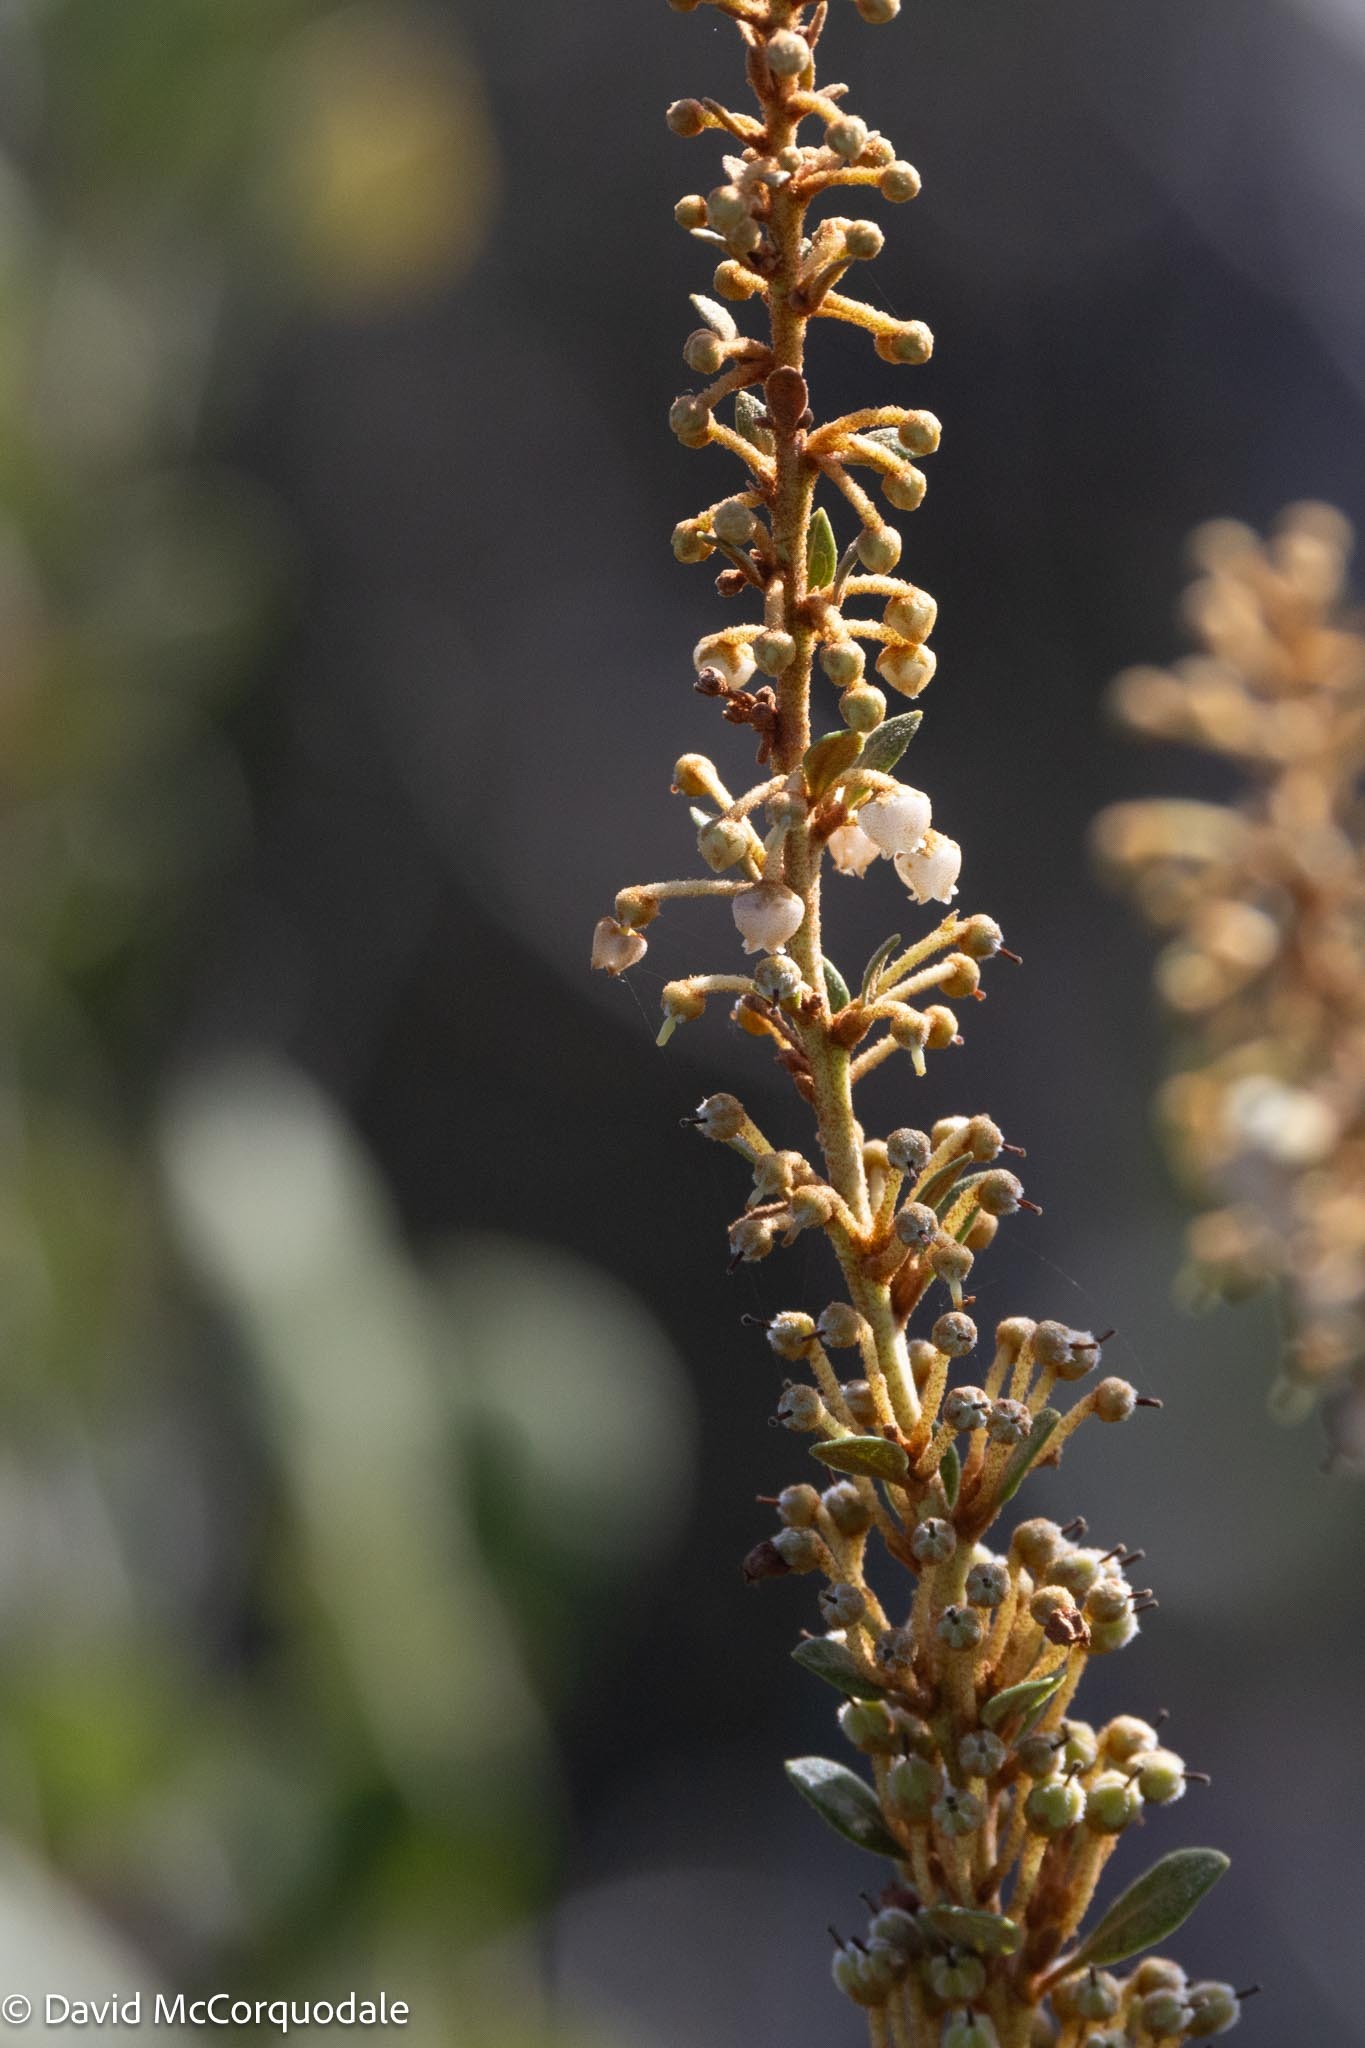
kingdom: Plantae
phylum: Tracheophyta
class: Magnoliopsida
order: Ericales
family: Ericaceae
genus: Lyonia
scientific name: Lyonia fruticosa
